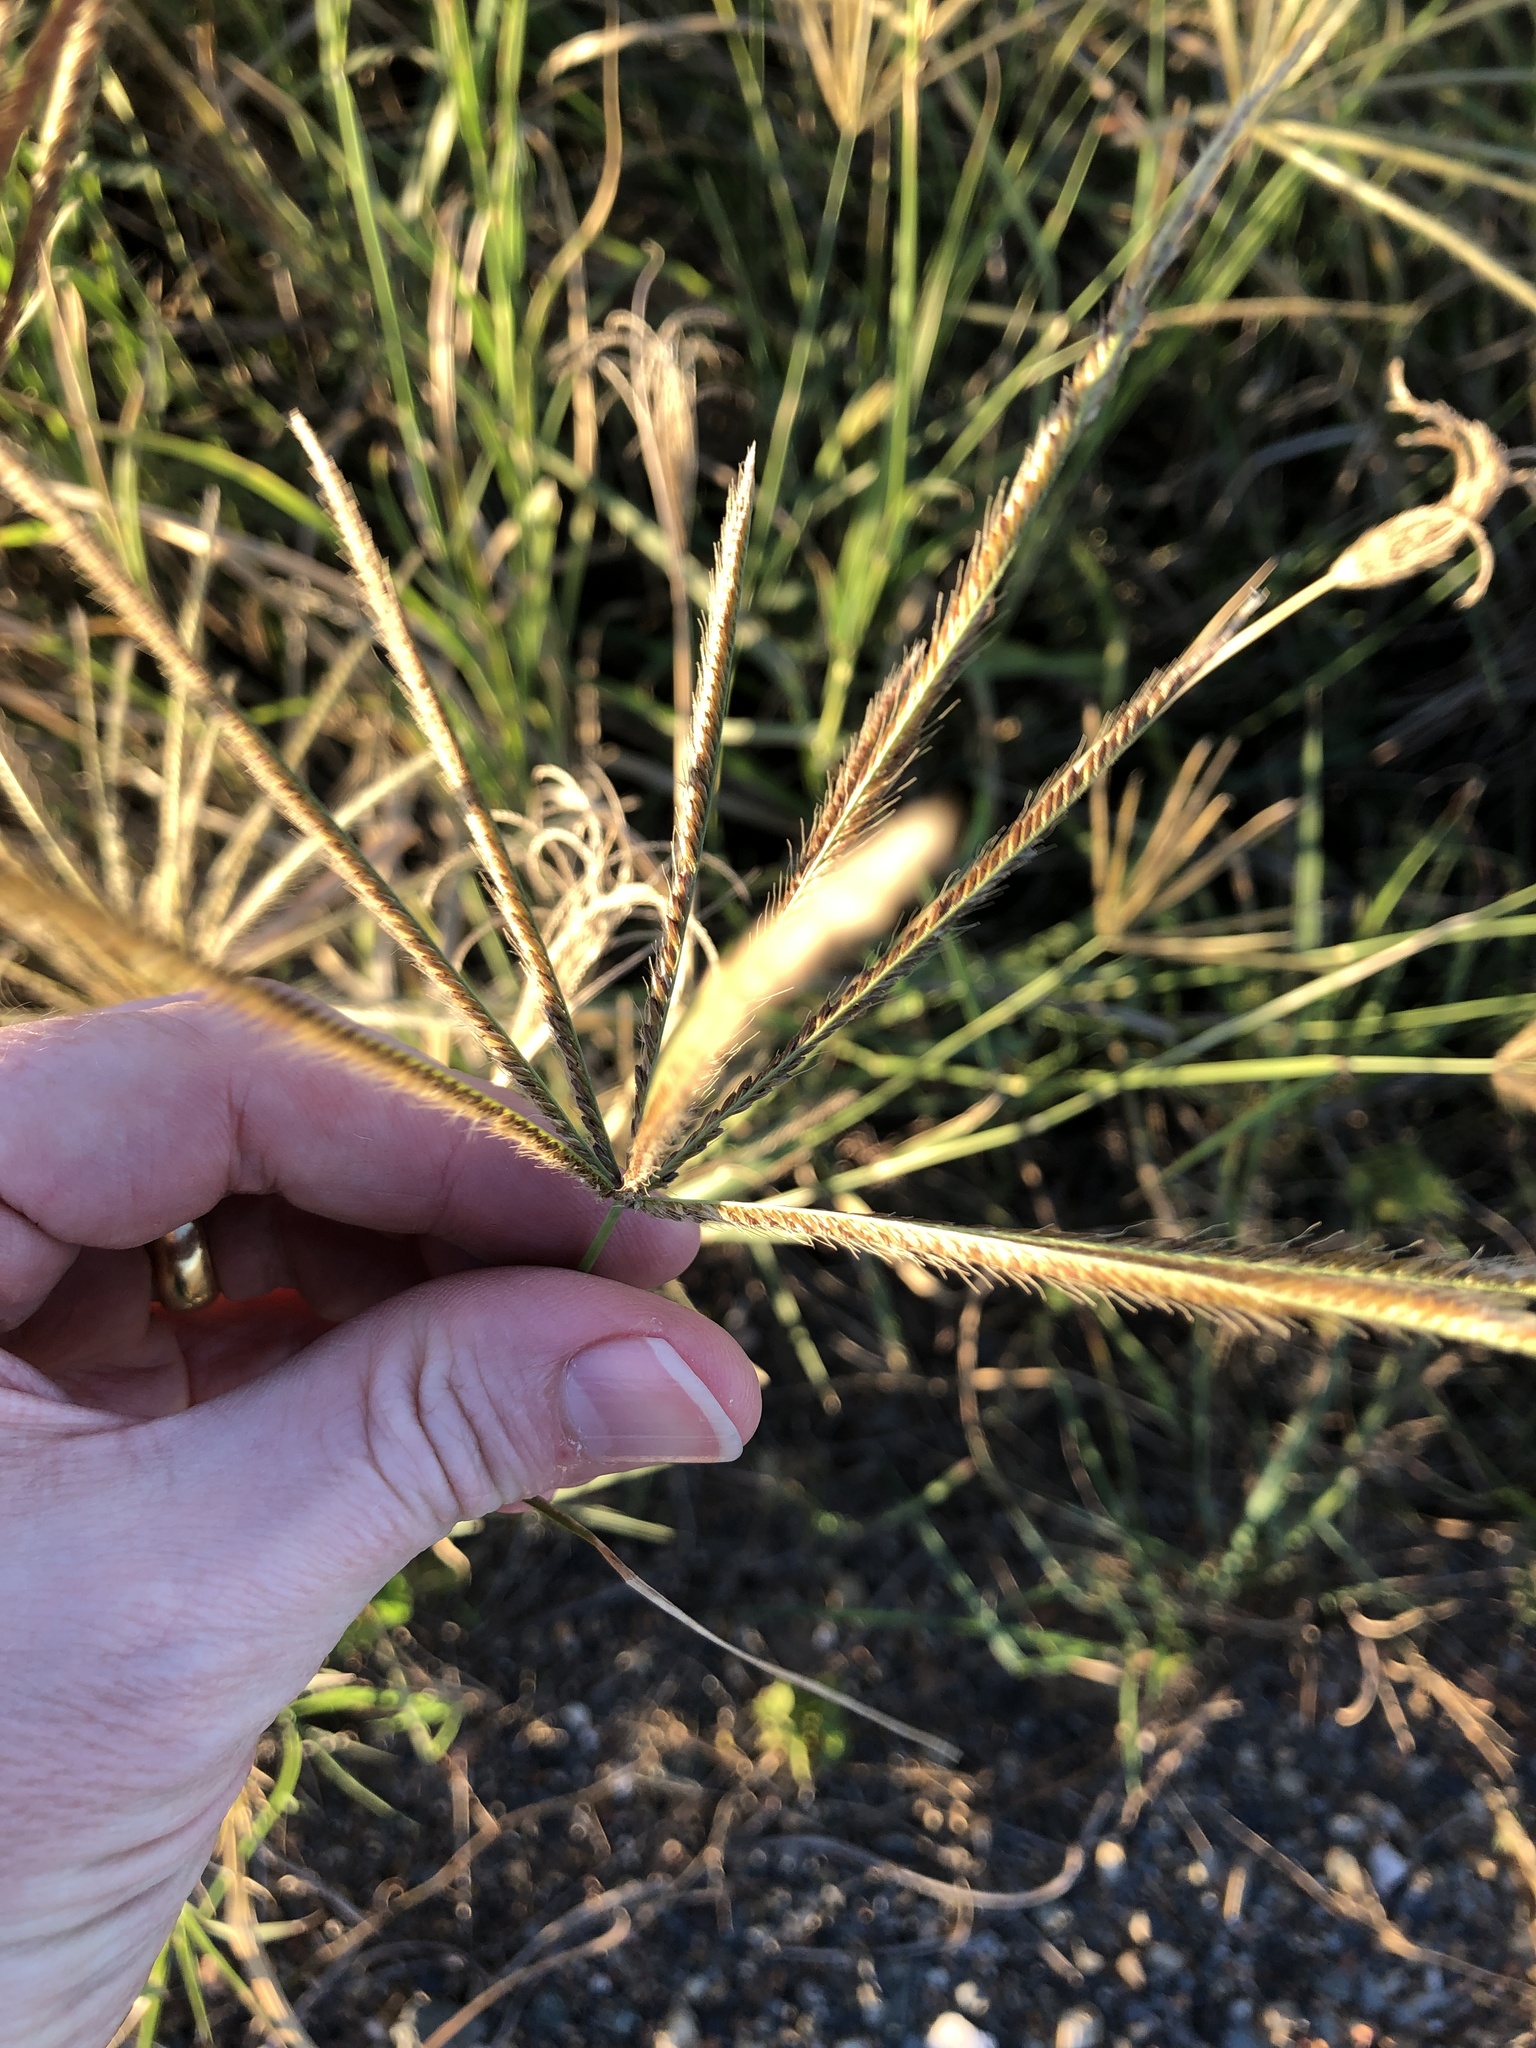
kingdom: Plantae
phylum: Tracheophyta
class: Liliopsida
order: Poales
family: Poaceae
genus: Chloris
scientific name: Chloris gayana
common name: Rhodes grass
